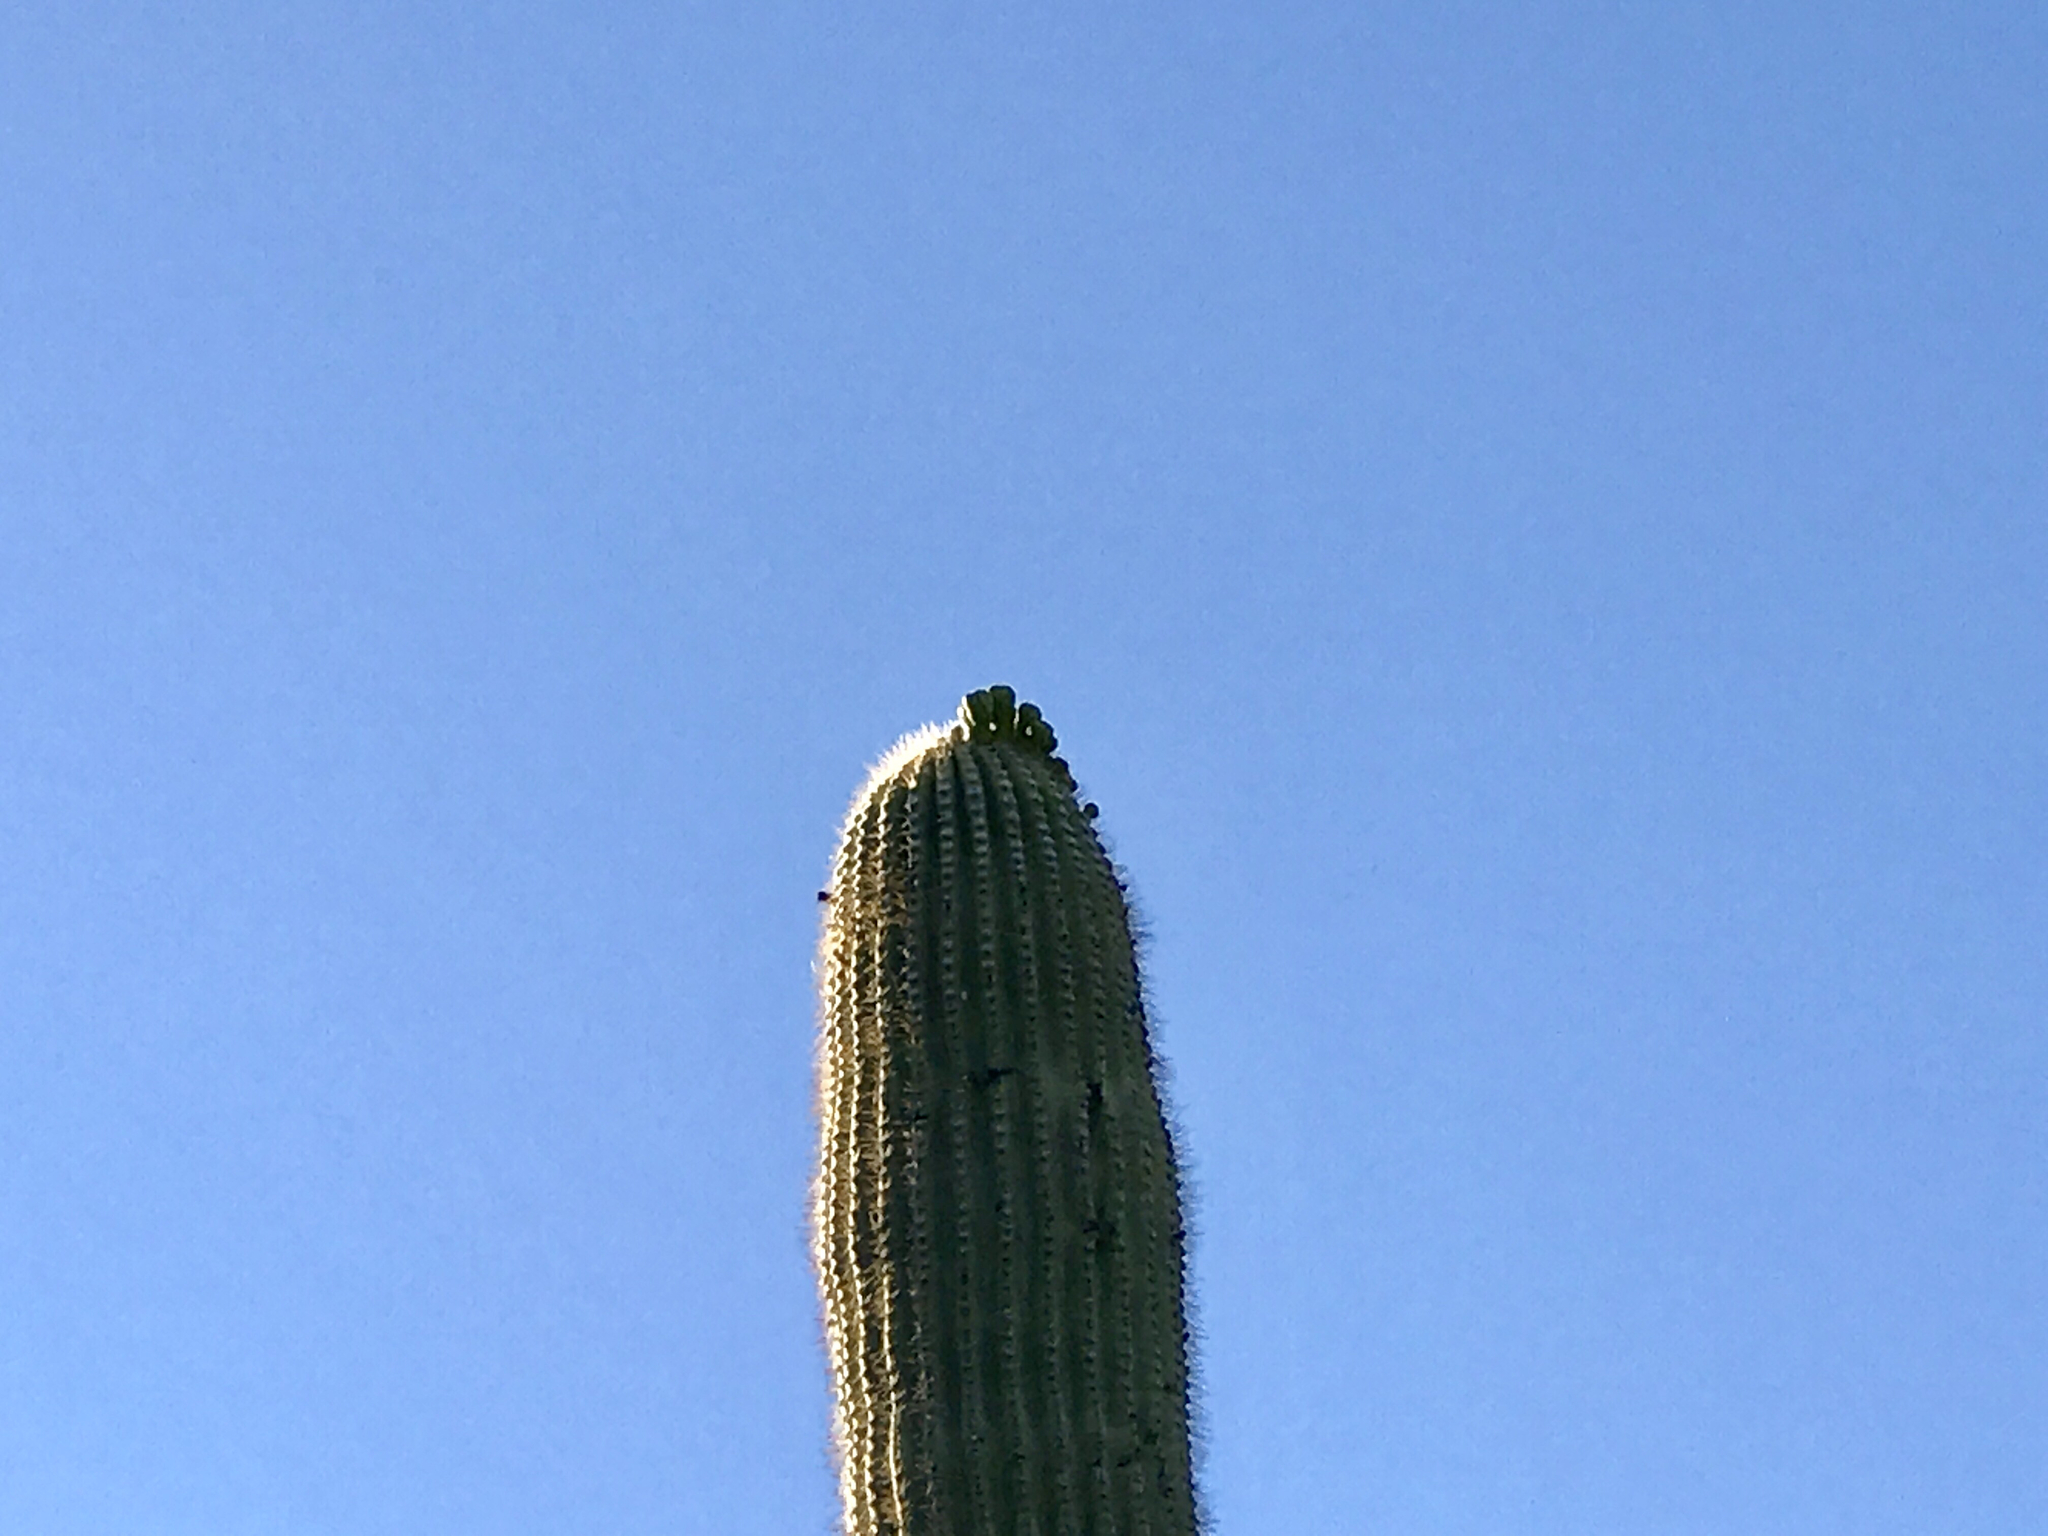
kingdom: Plantae
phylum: Tracheophyta
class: Magnoliopsida
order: Caryophyllales
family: Cactaceae
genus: Carnegiea
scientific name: Carnegiea gigantea
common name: Saguaro
